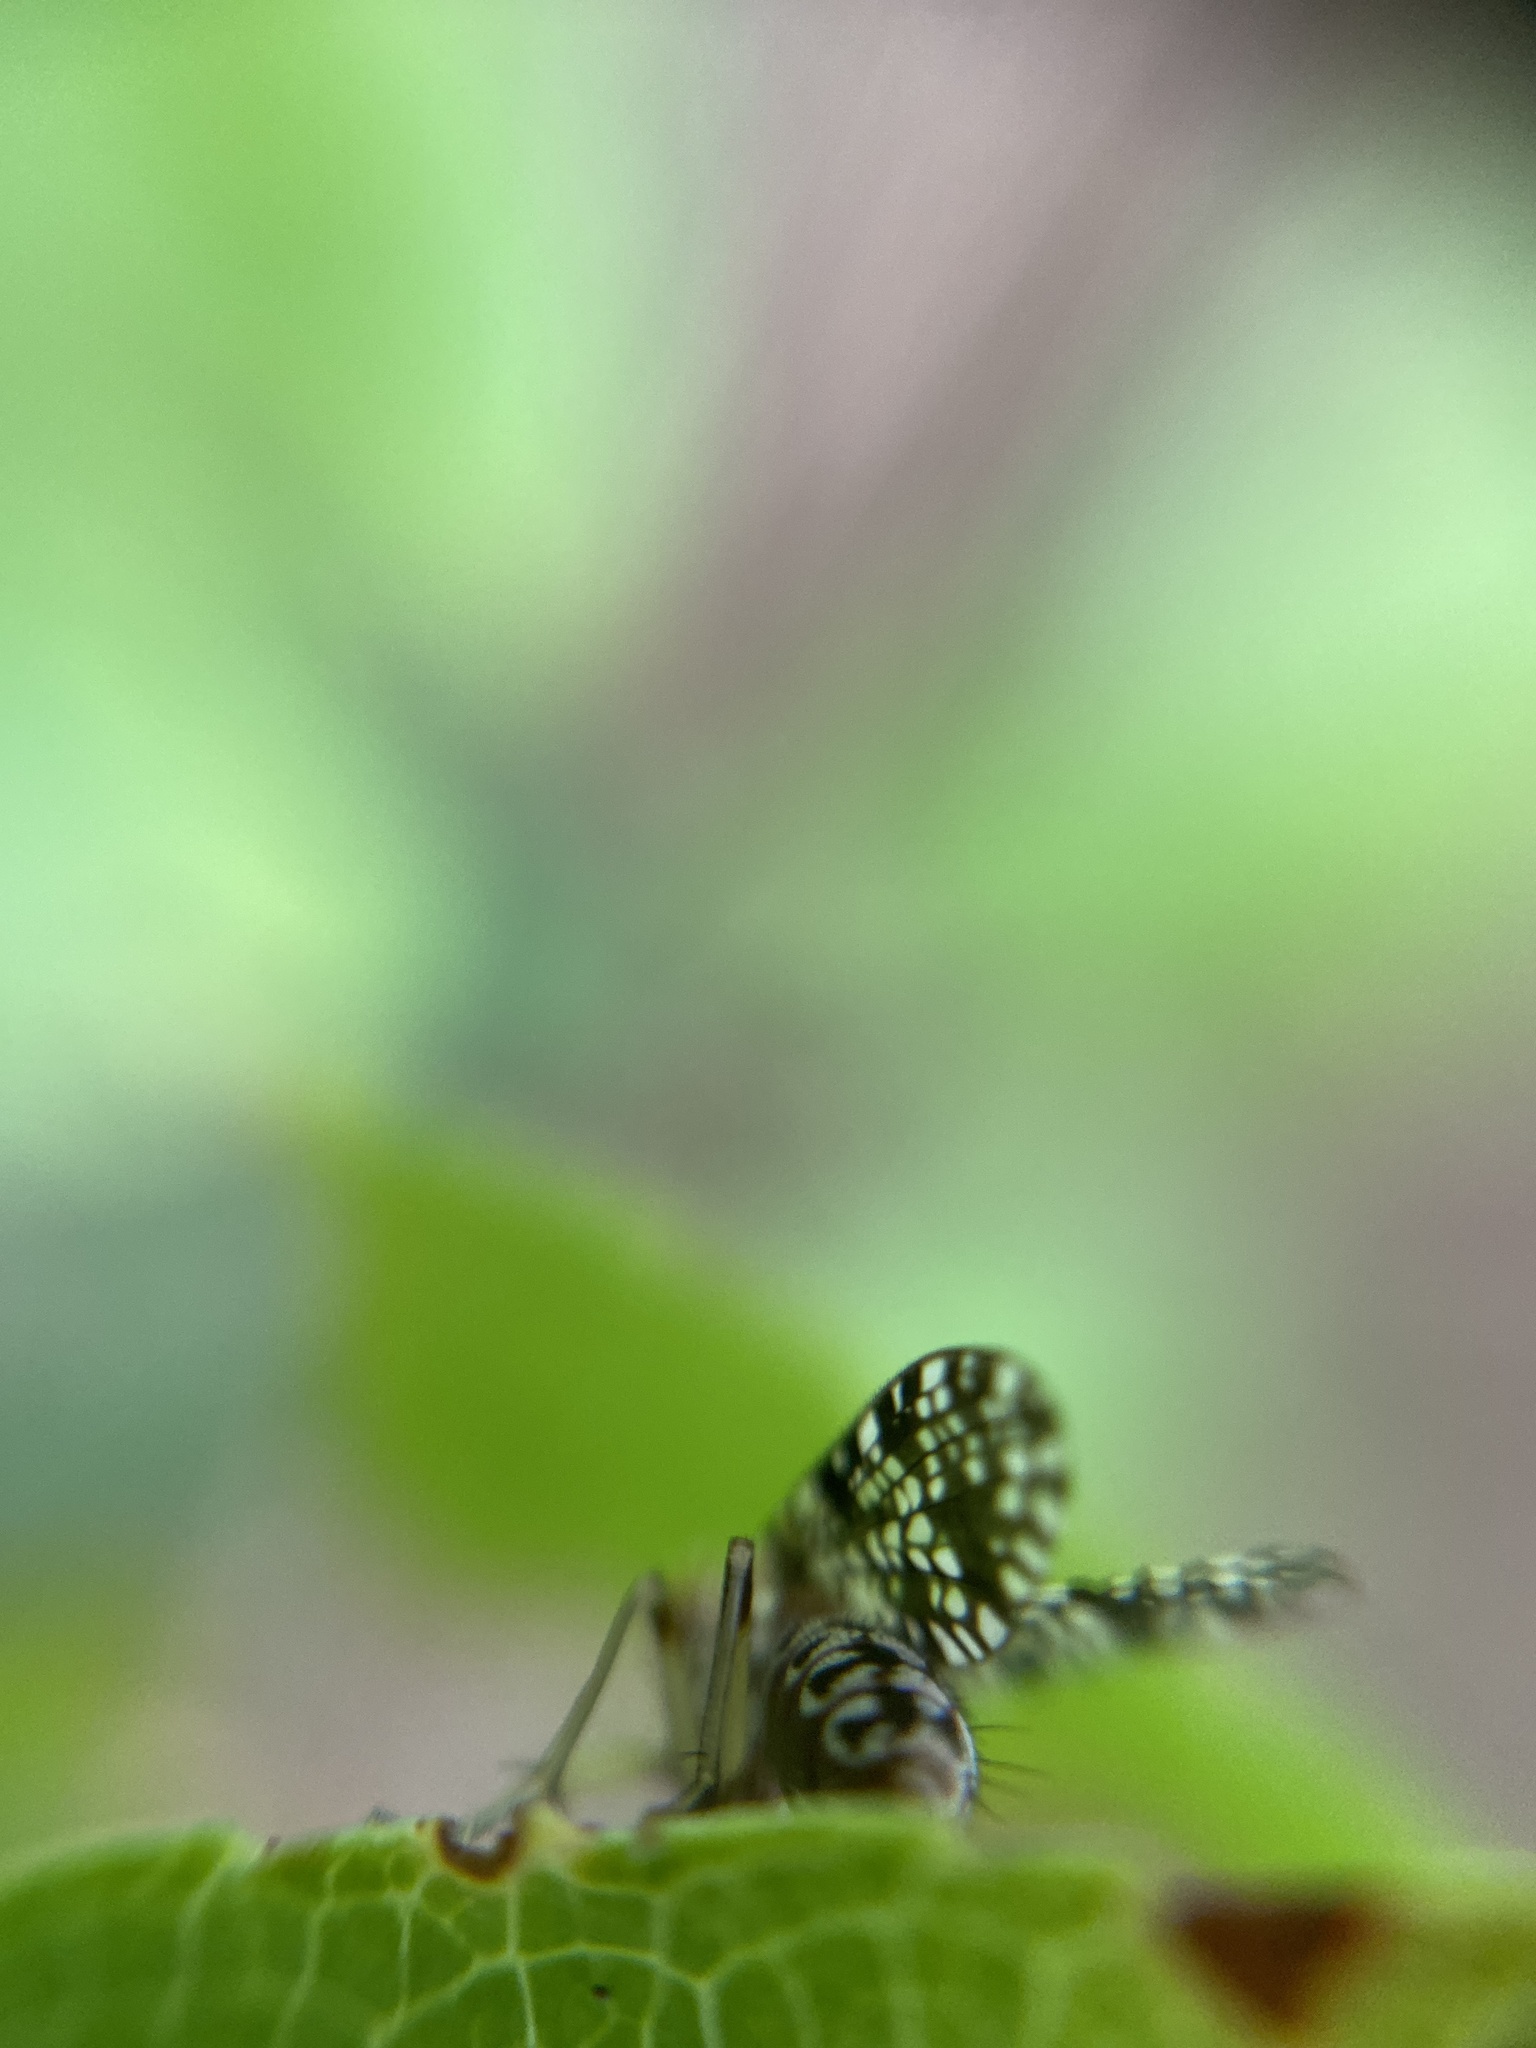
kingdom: Animalia
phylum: Arthropoda
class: Insecta
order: Diptera
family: Sciomyzidae
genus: Trypetoptera
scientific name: Trypetoptera punctulata
